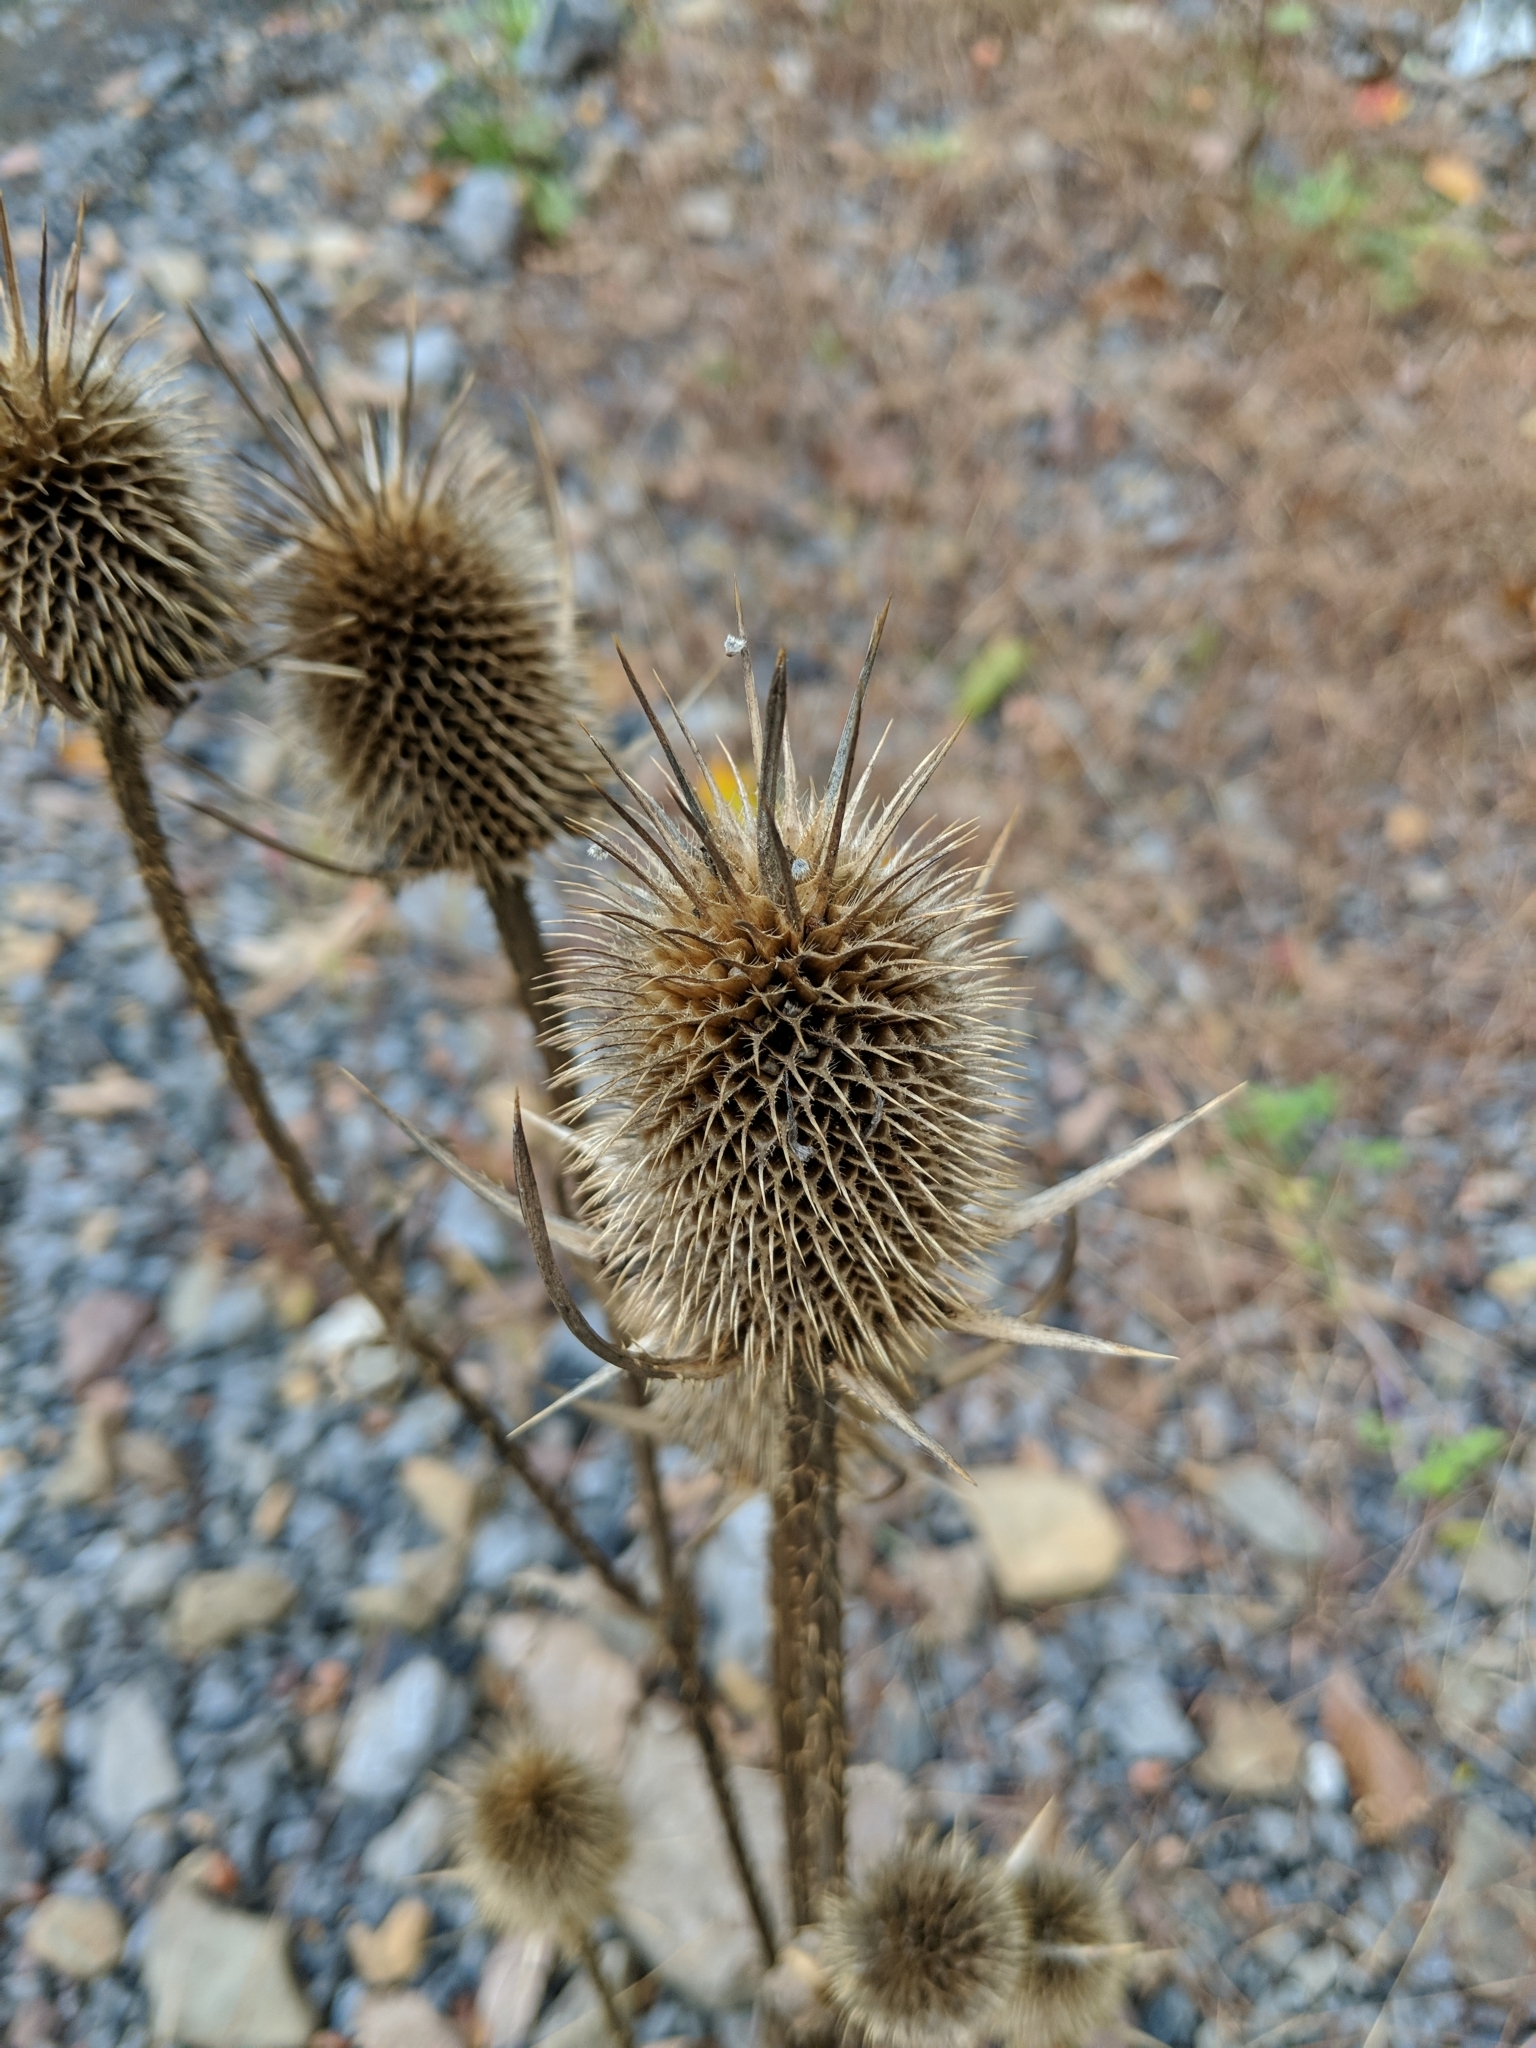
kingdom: Plantae
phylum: Tracheophyta
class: Magnoliopsida
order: Dipsacales
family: Caprifoliaceae
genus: Dipsacus
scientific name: Dipsacus laciniatus
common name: Cut-leaved teasel
